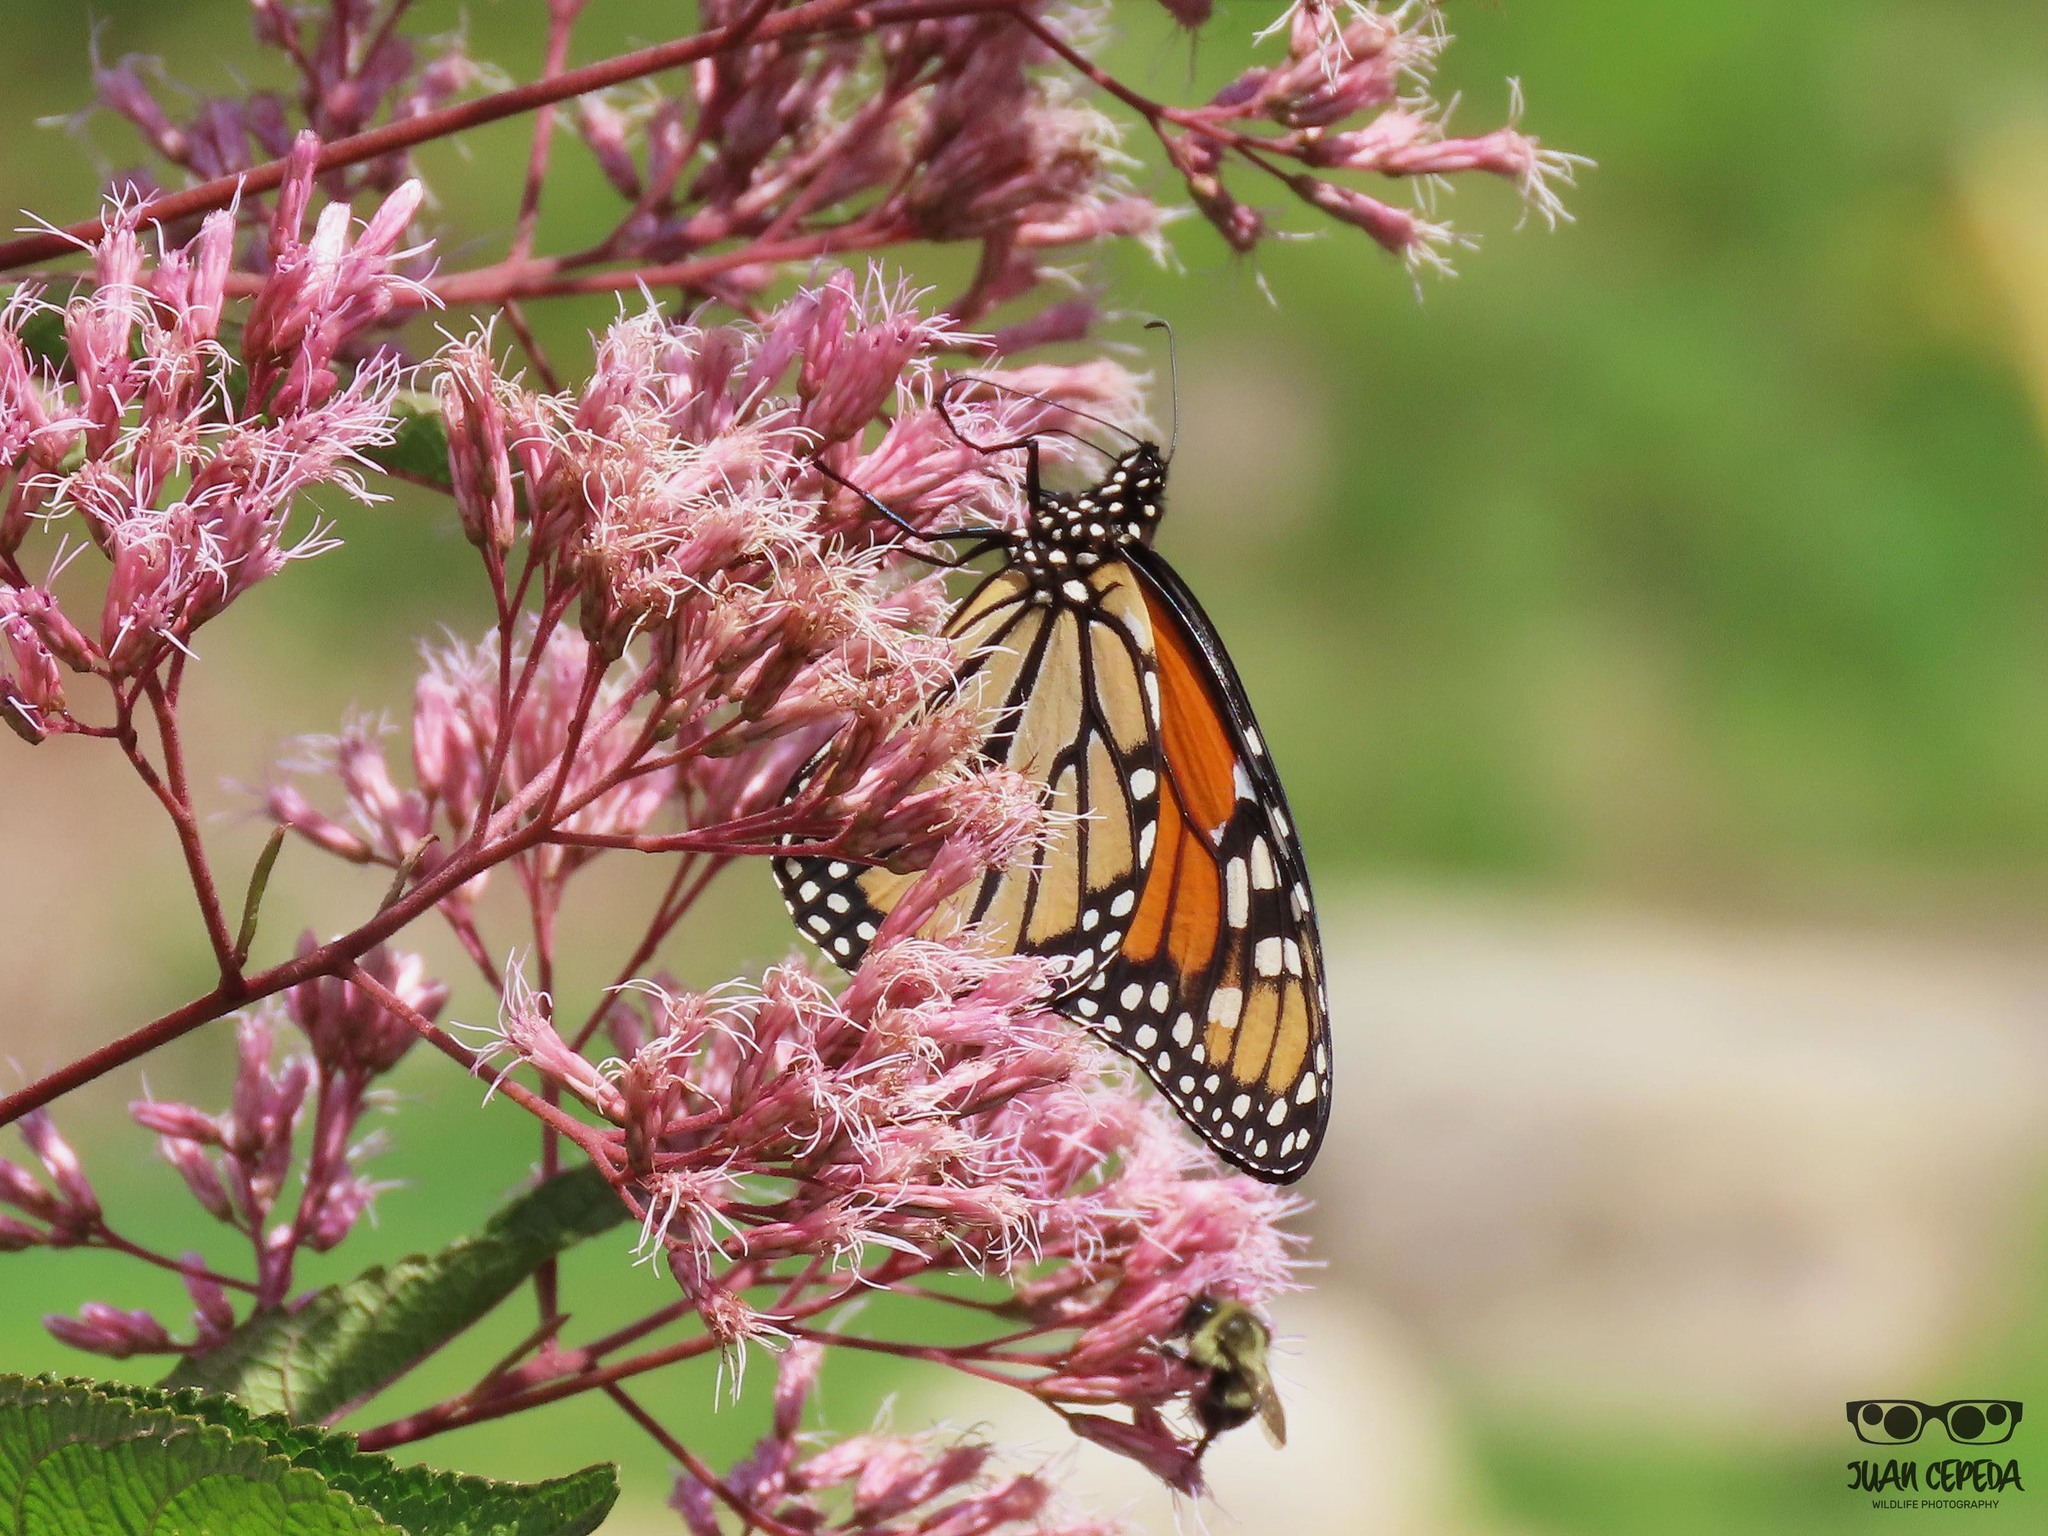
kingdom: Animalia
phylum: Arthropoda
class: Insecta
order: Lepidoptera
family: Nymphalidae
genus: Danaus
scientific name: Danaus plexippus
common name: Monarch
